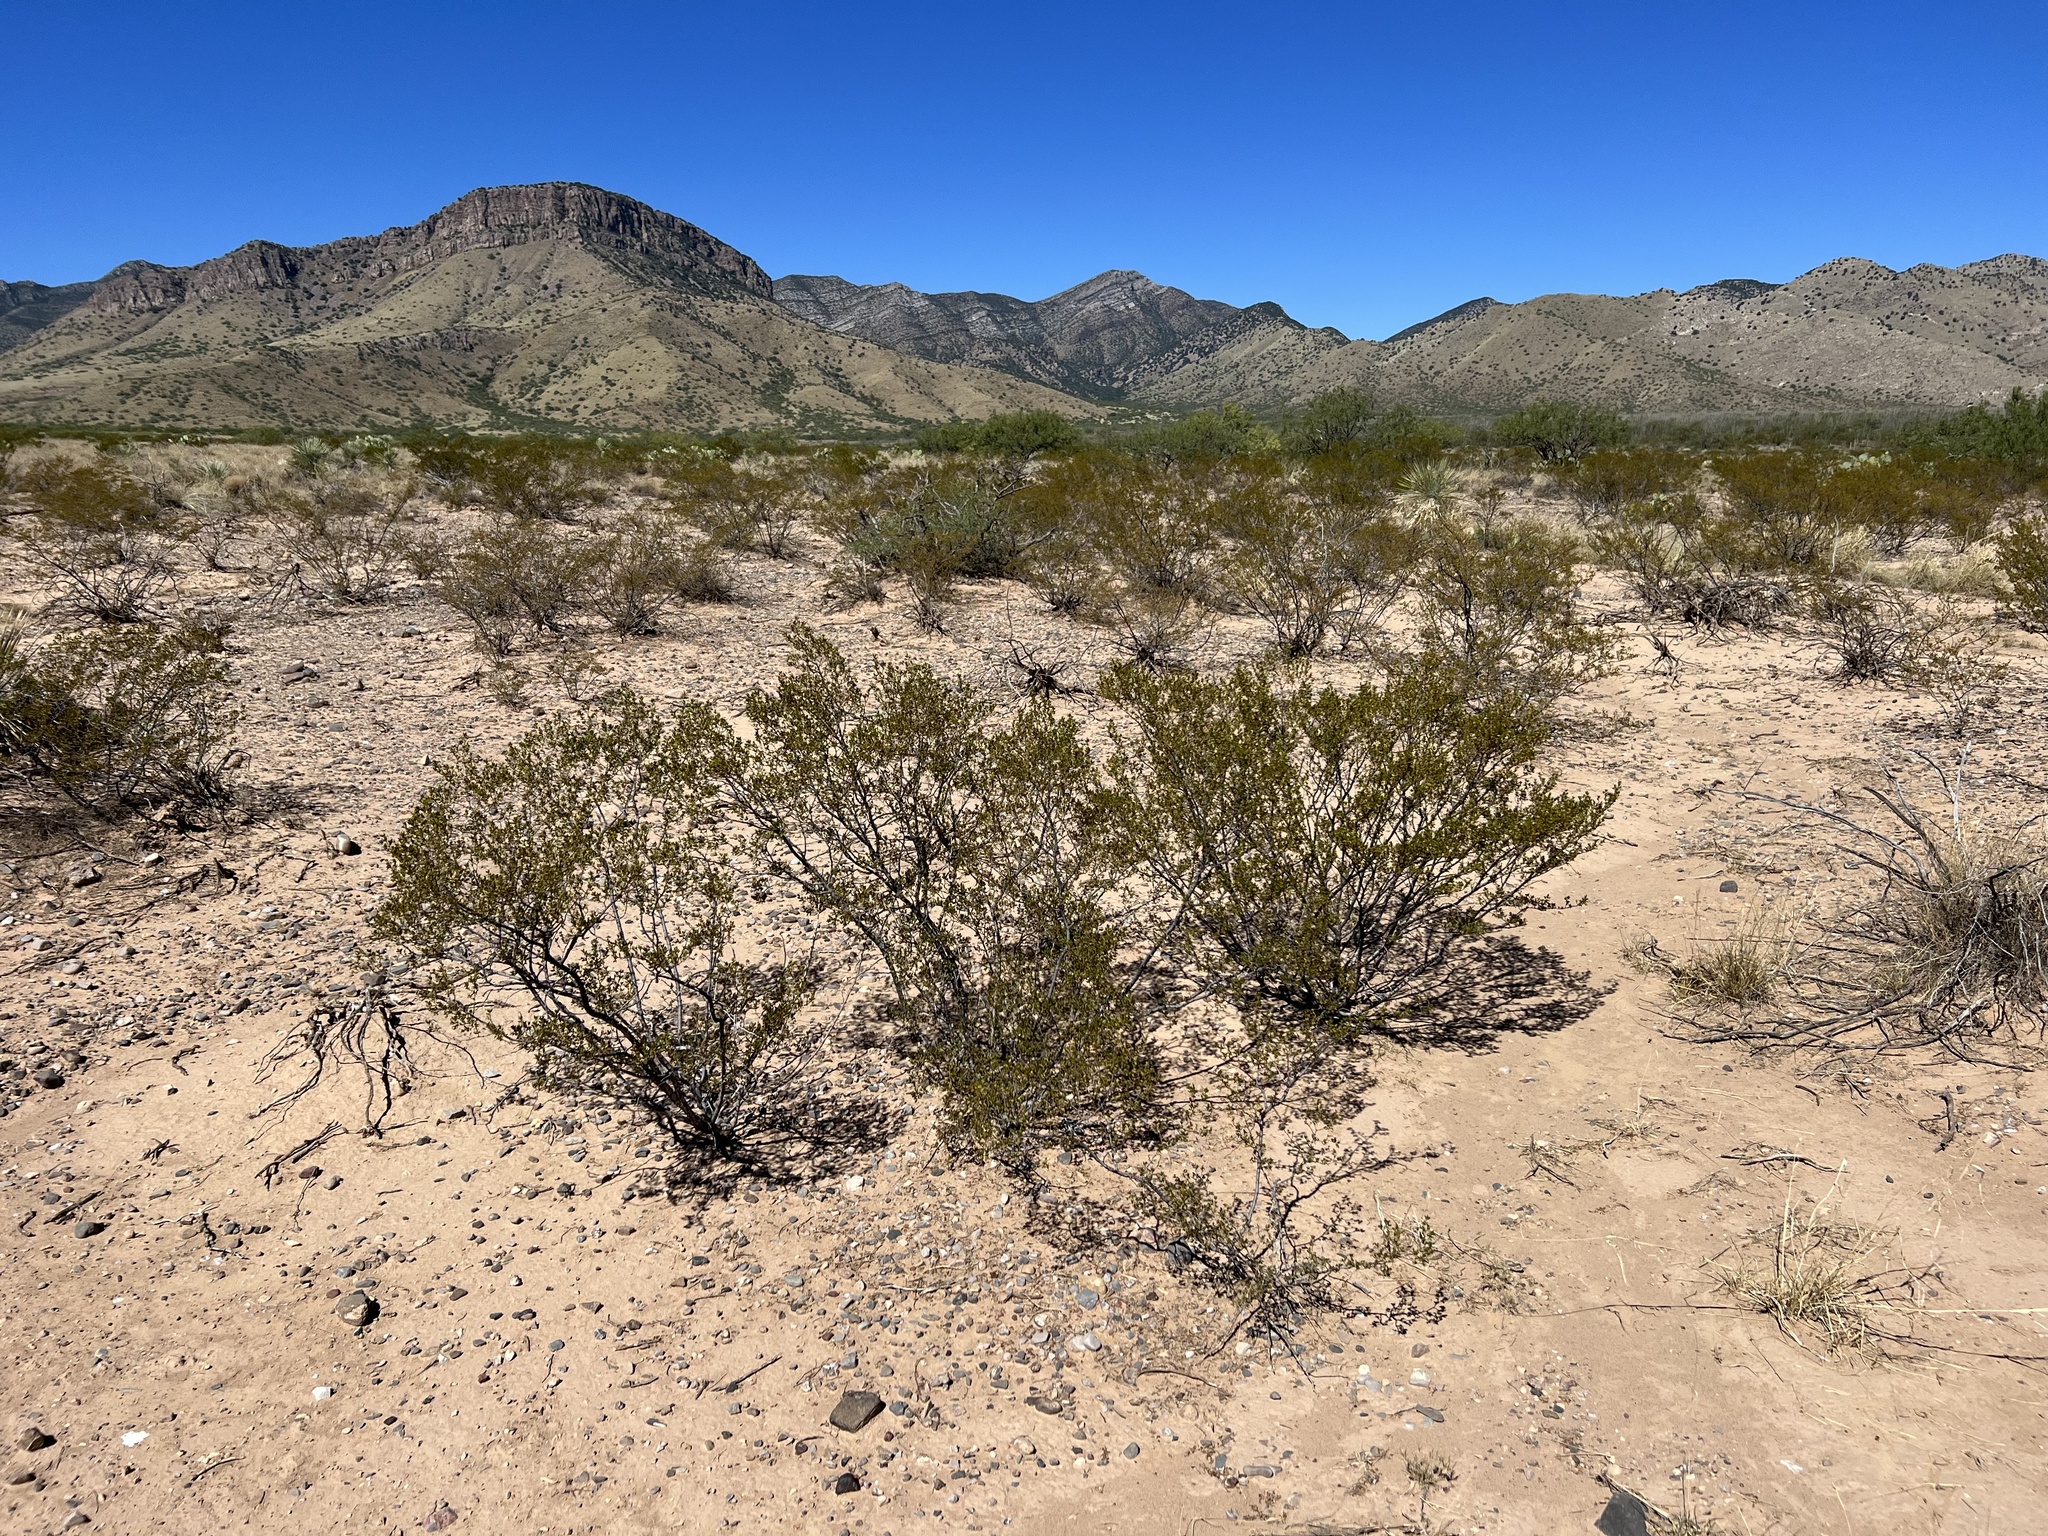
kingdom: Plantae
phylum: Tracheophyta
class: Magnoliopsida
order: Zygophyllales
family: Zygophyllaceae
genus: Larrea
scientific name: Larrea tridentata
